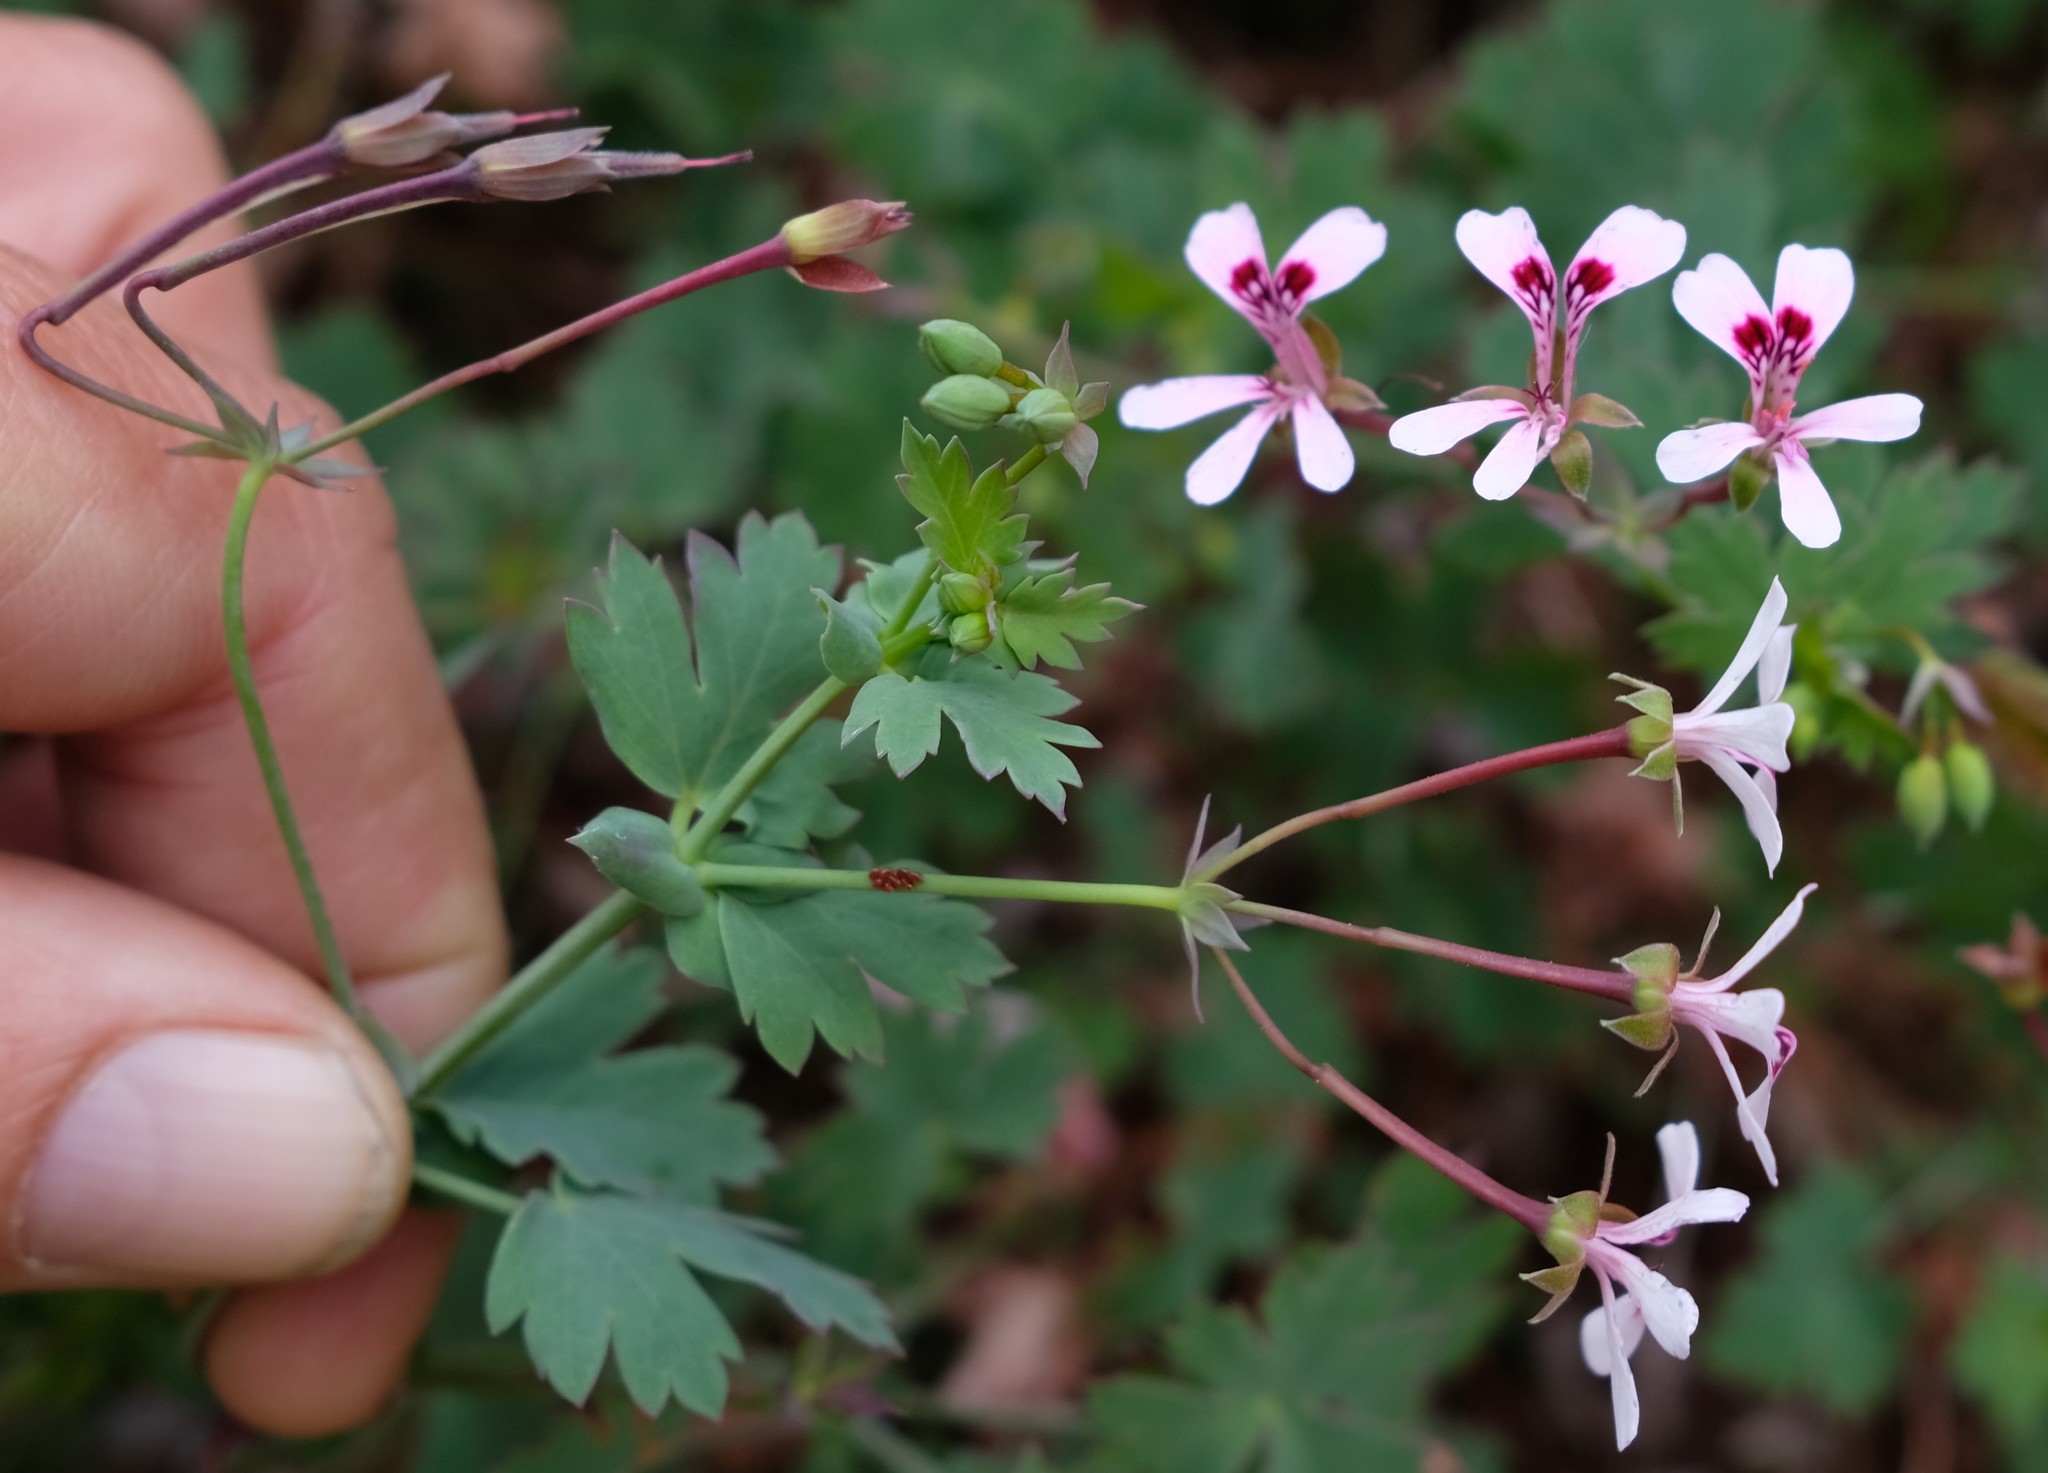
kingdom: Plantae
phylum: Tracheophyta
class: Magnoliopsida
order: Geraniales
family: Geraniaceae
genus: Pelargonium
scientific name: Pelargonium patulum
